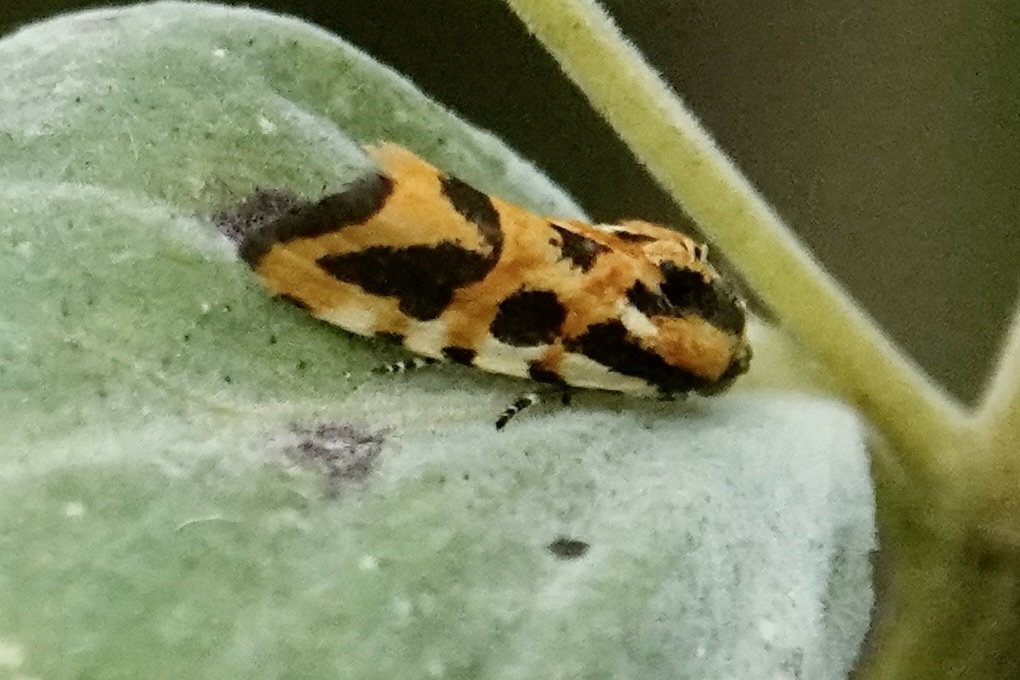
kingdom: Animalia
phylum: Arthropoda
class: Insecta
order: Lepidoptera
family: Noctuidae
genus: Acontia
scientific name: Acontia leo
